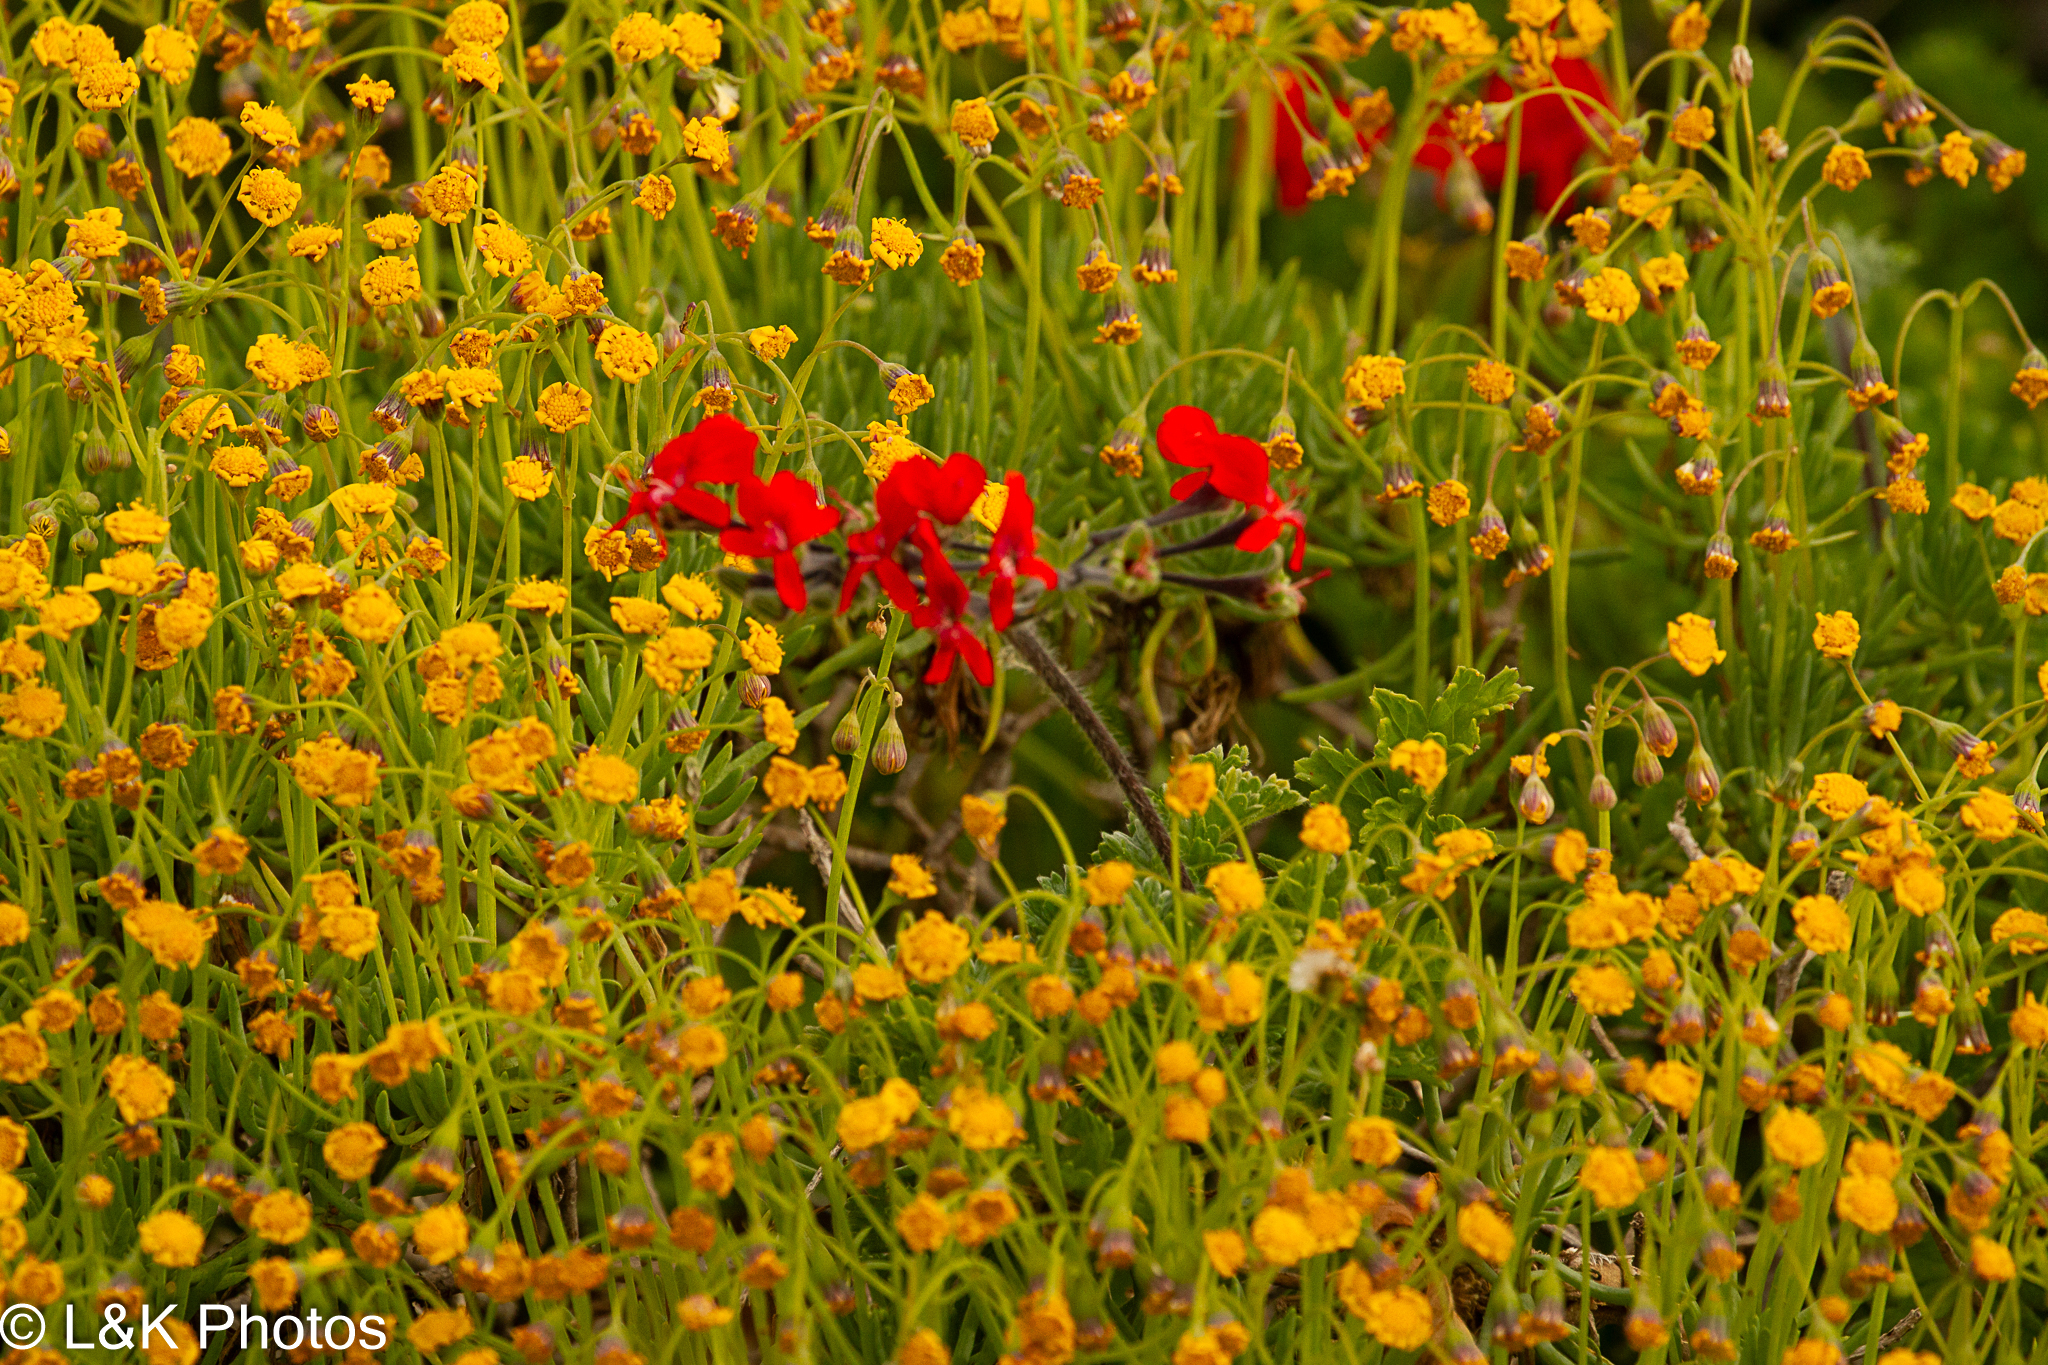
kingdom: Plantae
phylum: Tracheophyta
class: Magnoliopsida
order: Geraniales
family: Geraniaceae
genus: Pelargonium
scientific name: Pelargonium fulgidum
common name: Celandine-leaf pelargonium
